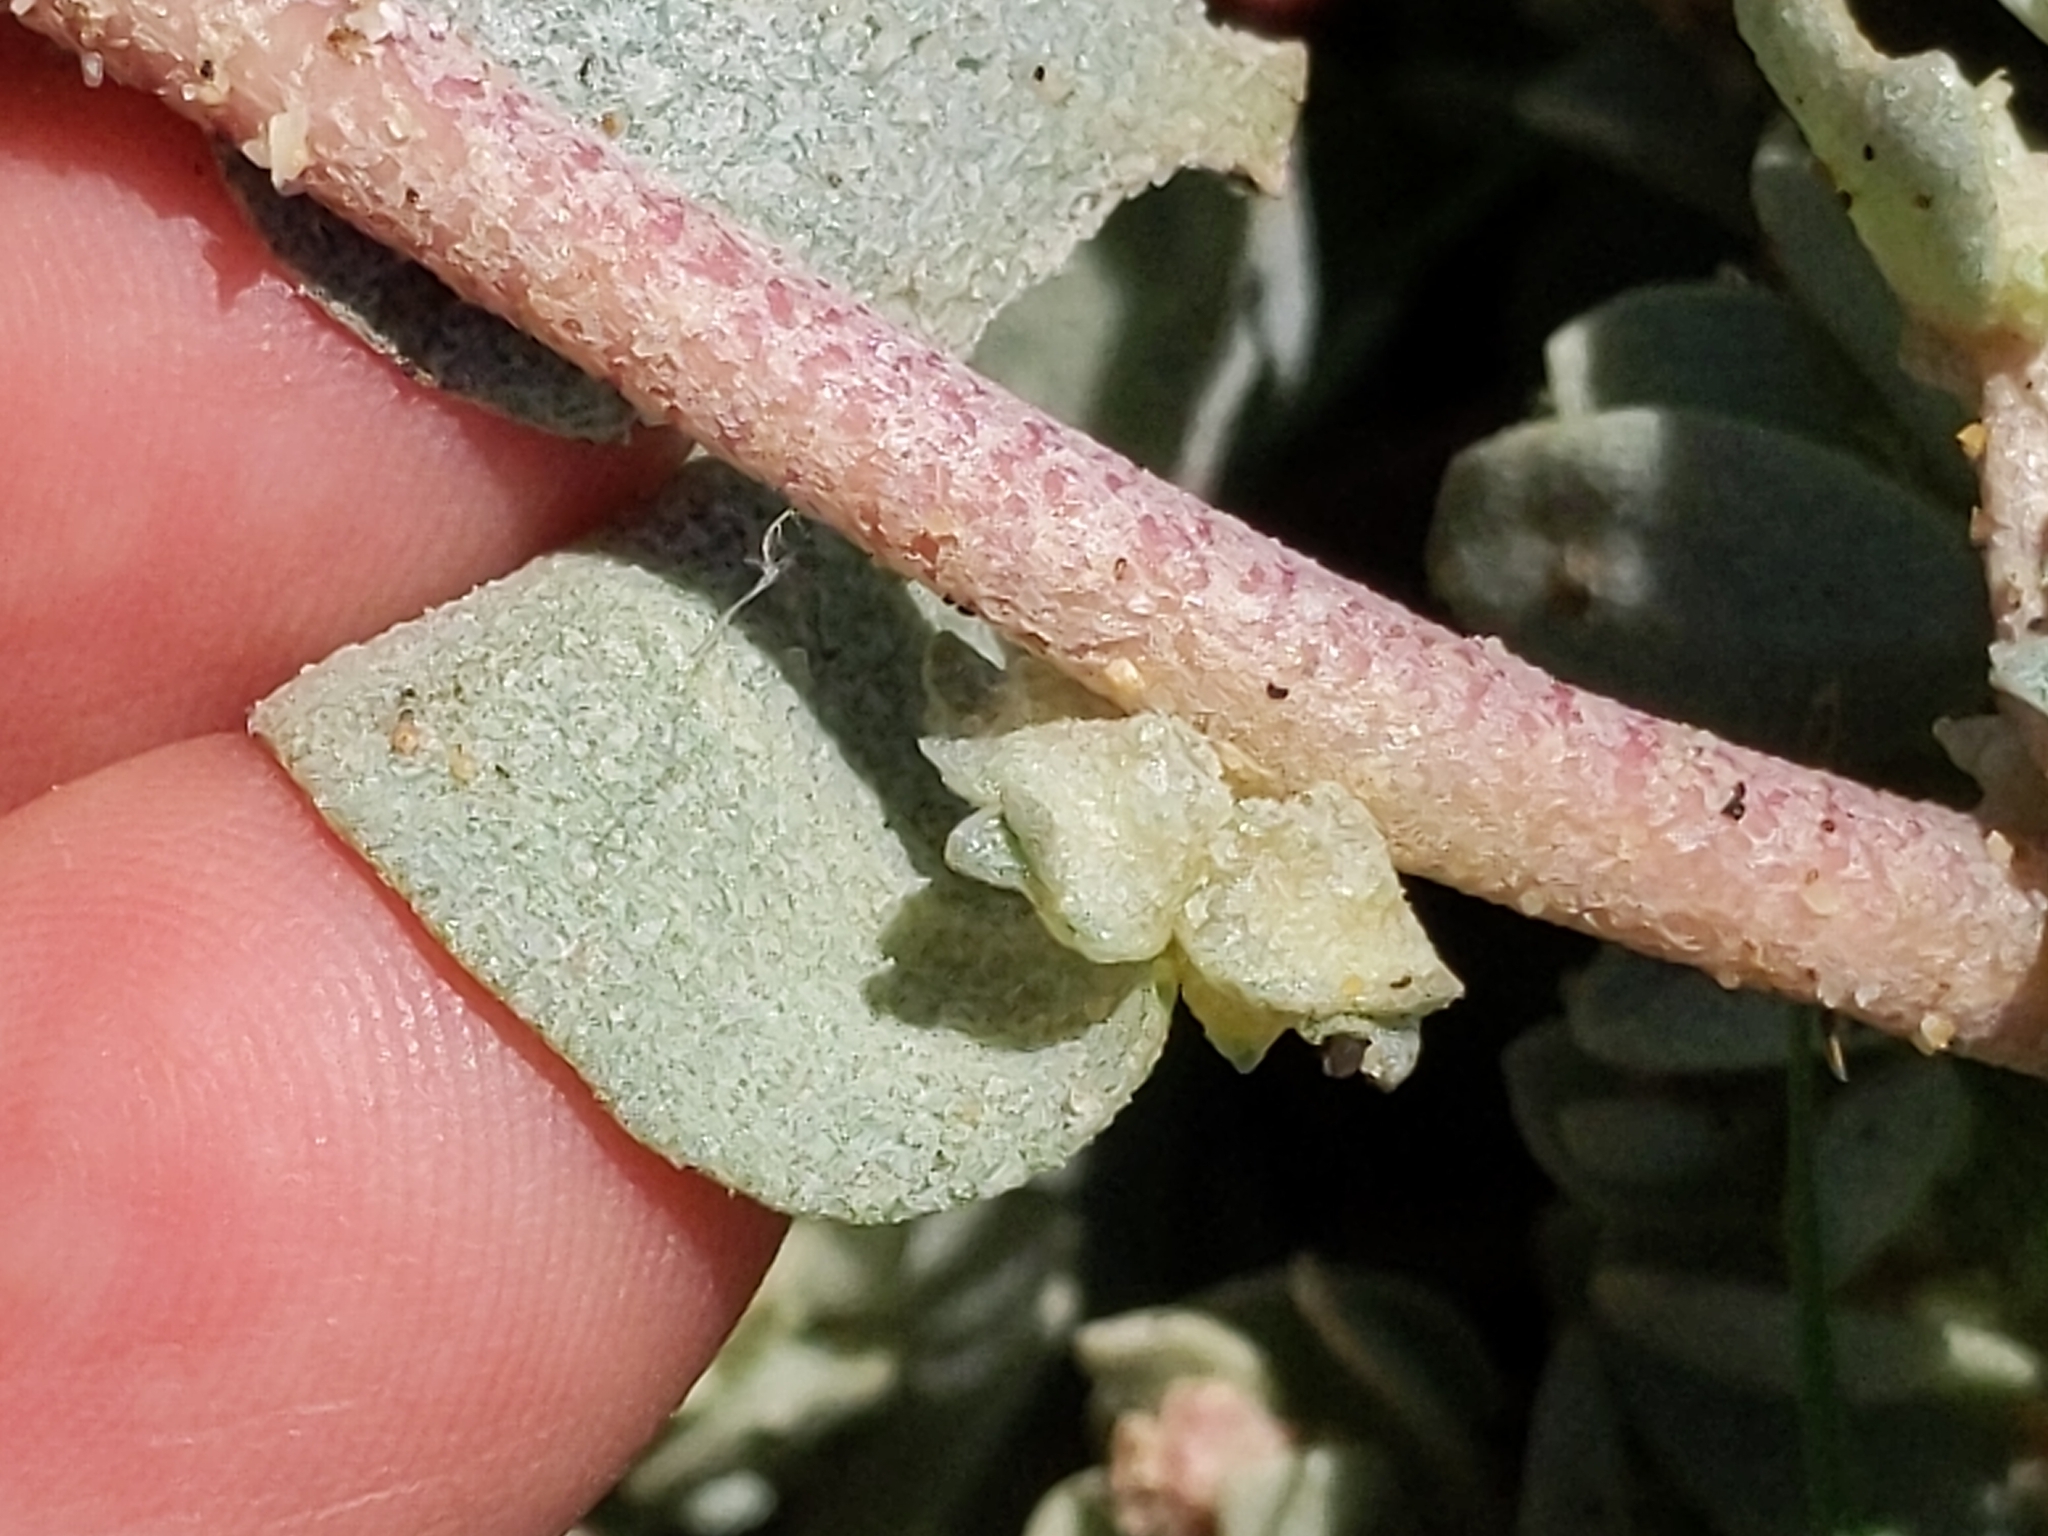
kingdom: Plantae
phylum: Tracheophyta
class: Magnoliopsida
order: Caryophyllales
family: Amaranthaceae
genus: Atriplex
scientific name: Atriplex leucophylla
